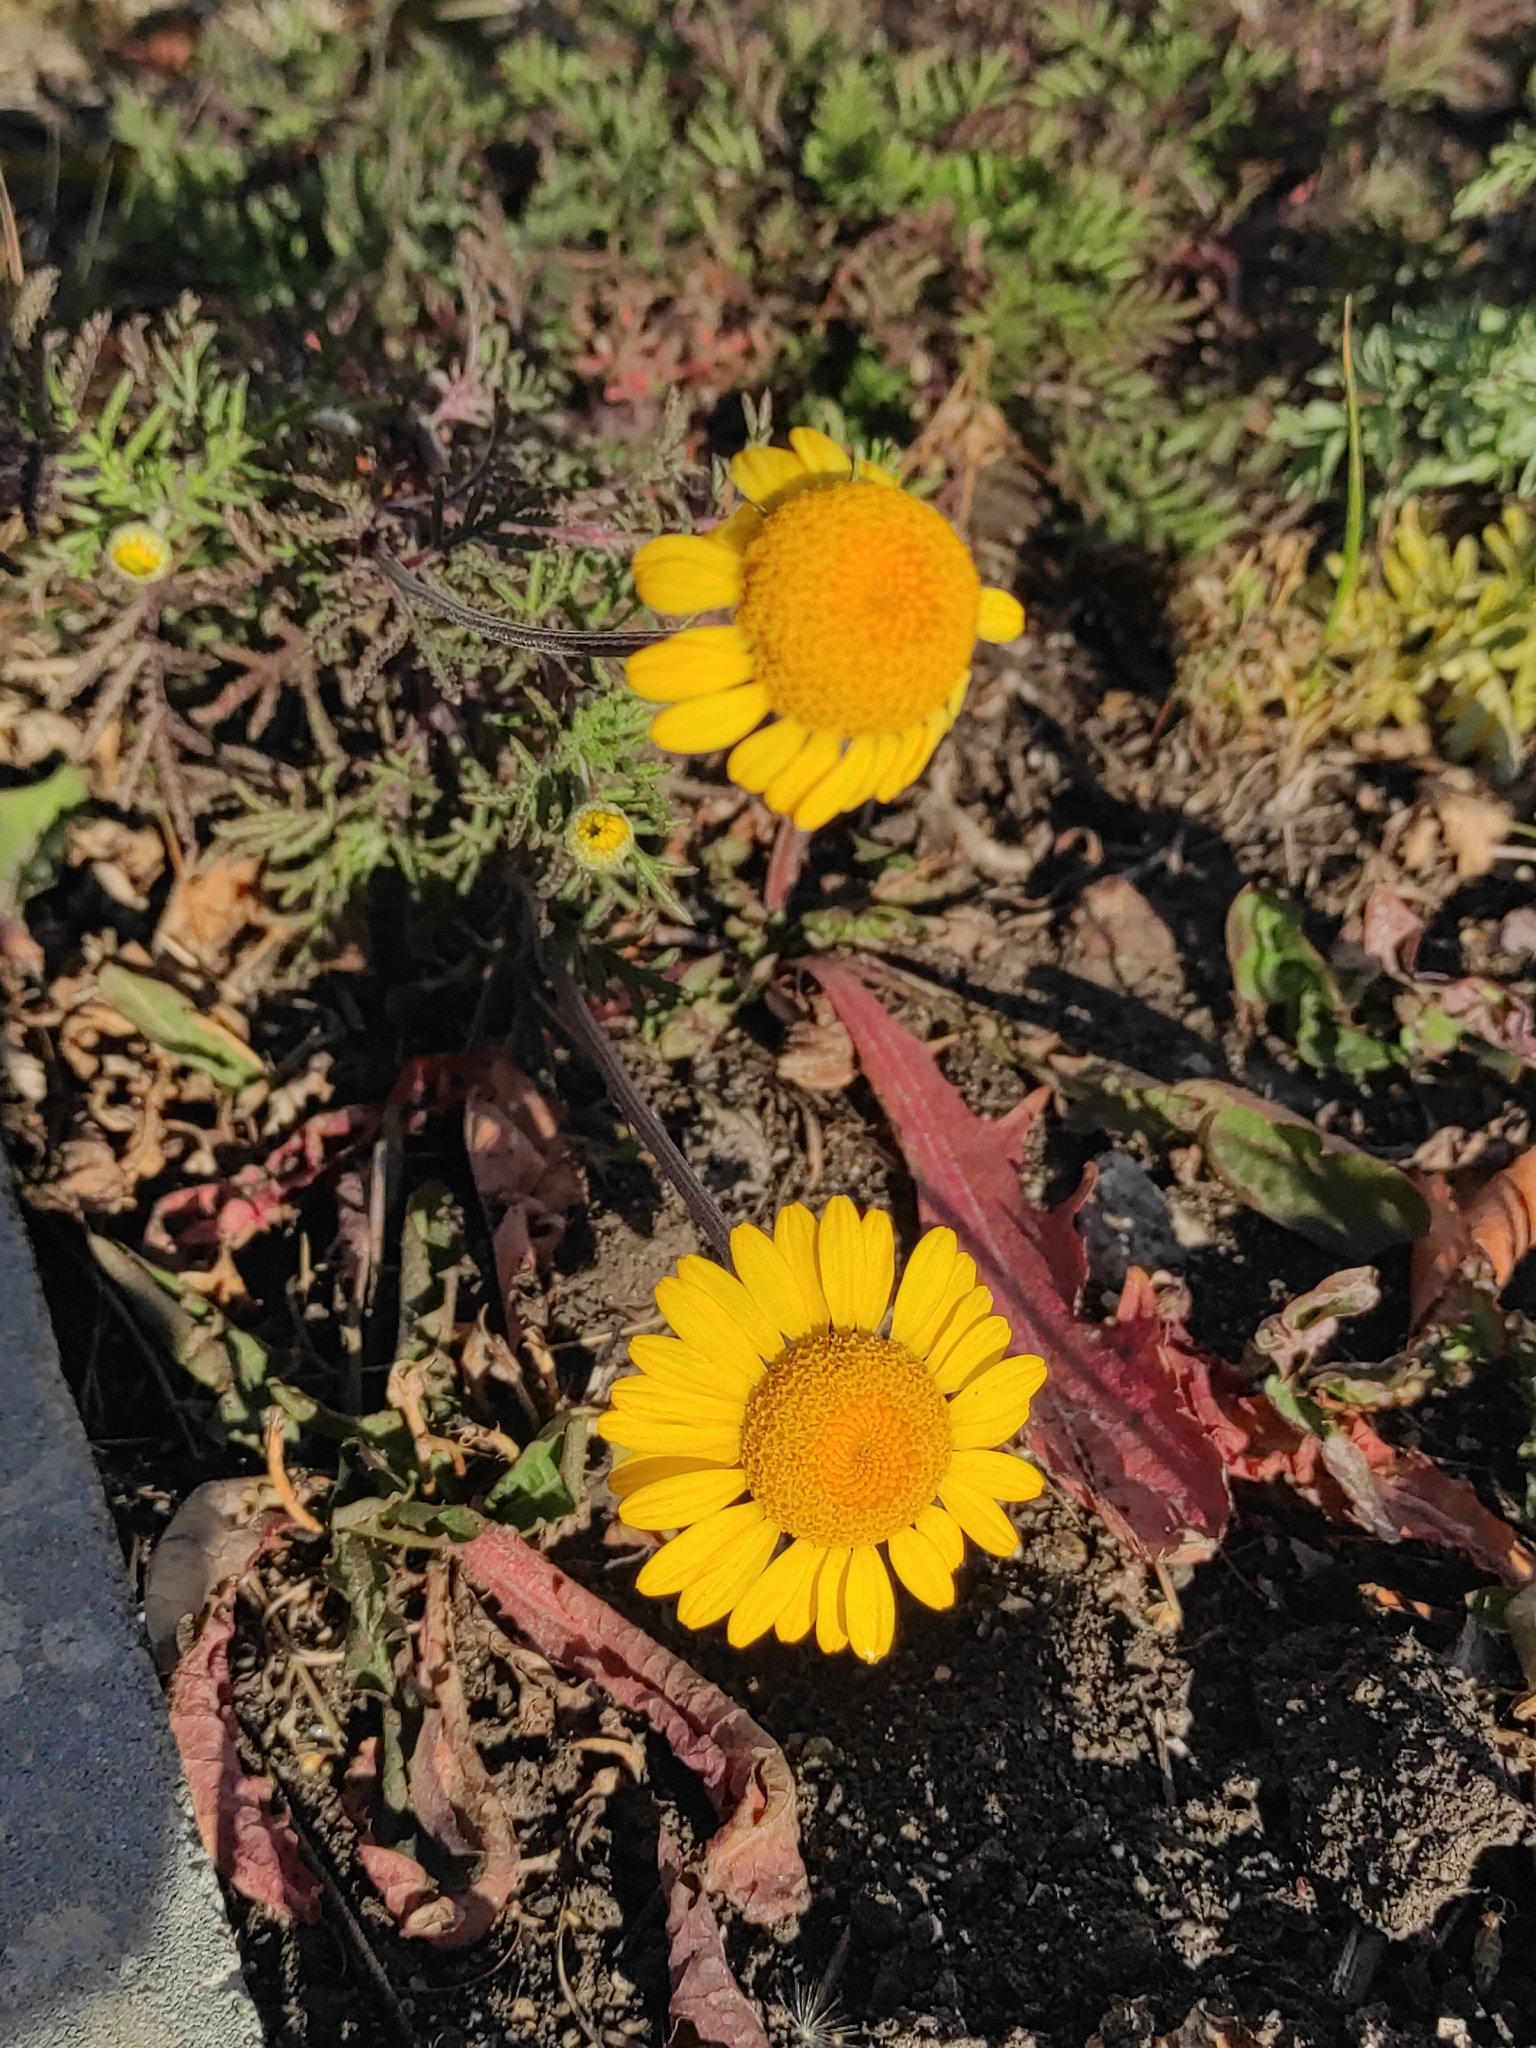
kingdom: Plantae
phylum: Tracheophyta
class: Magnoliopsida
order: Asterales
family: Asteraceae
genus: Cota
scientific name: Cota tinctoria
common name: Golden chamomile
